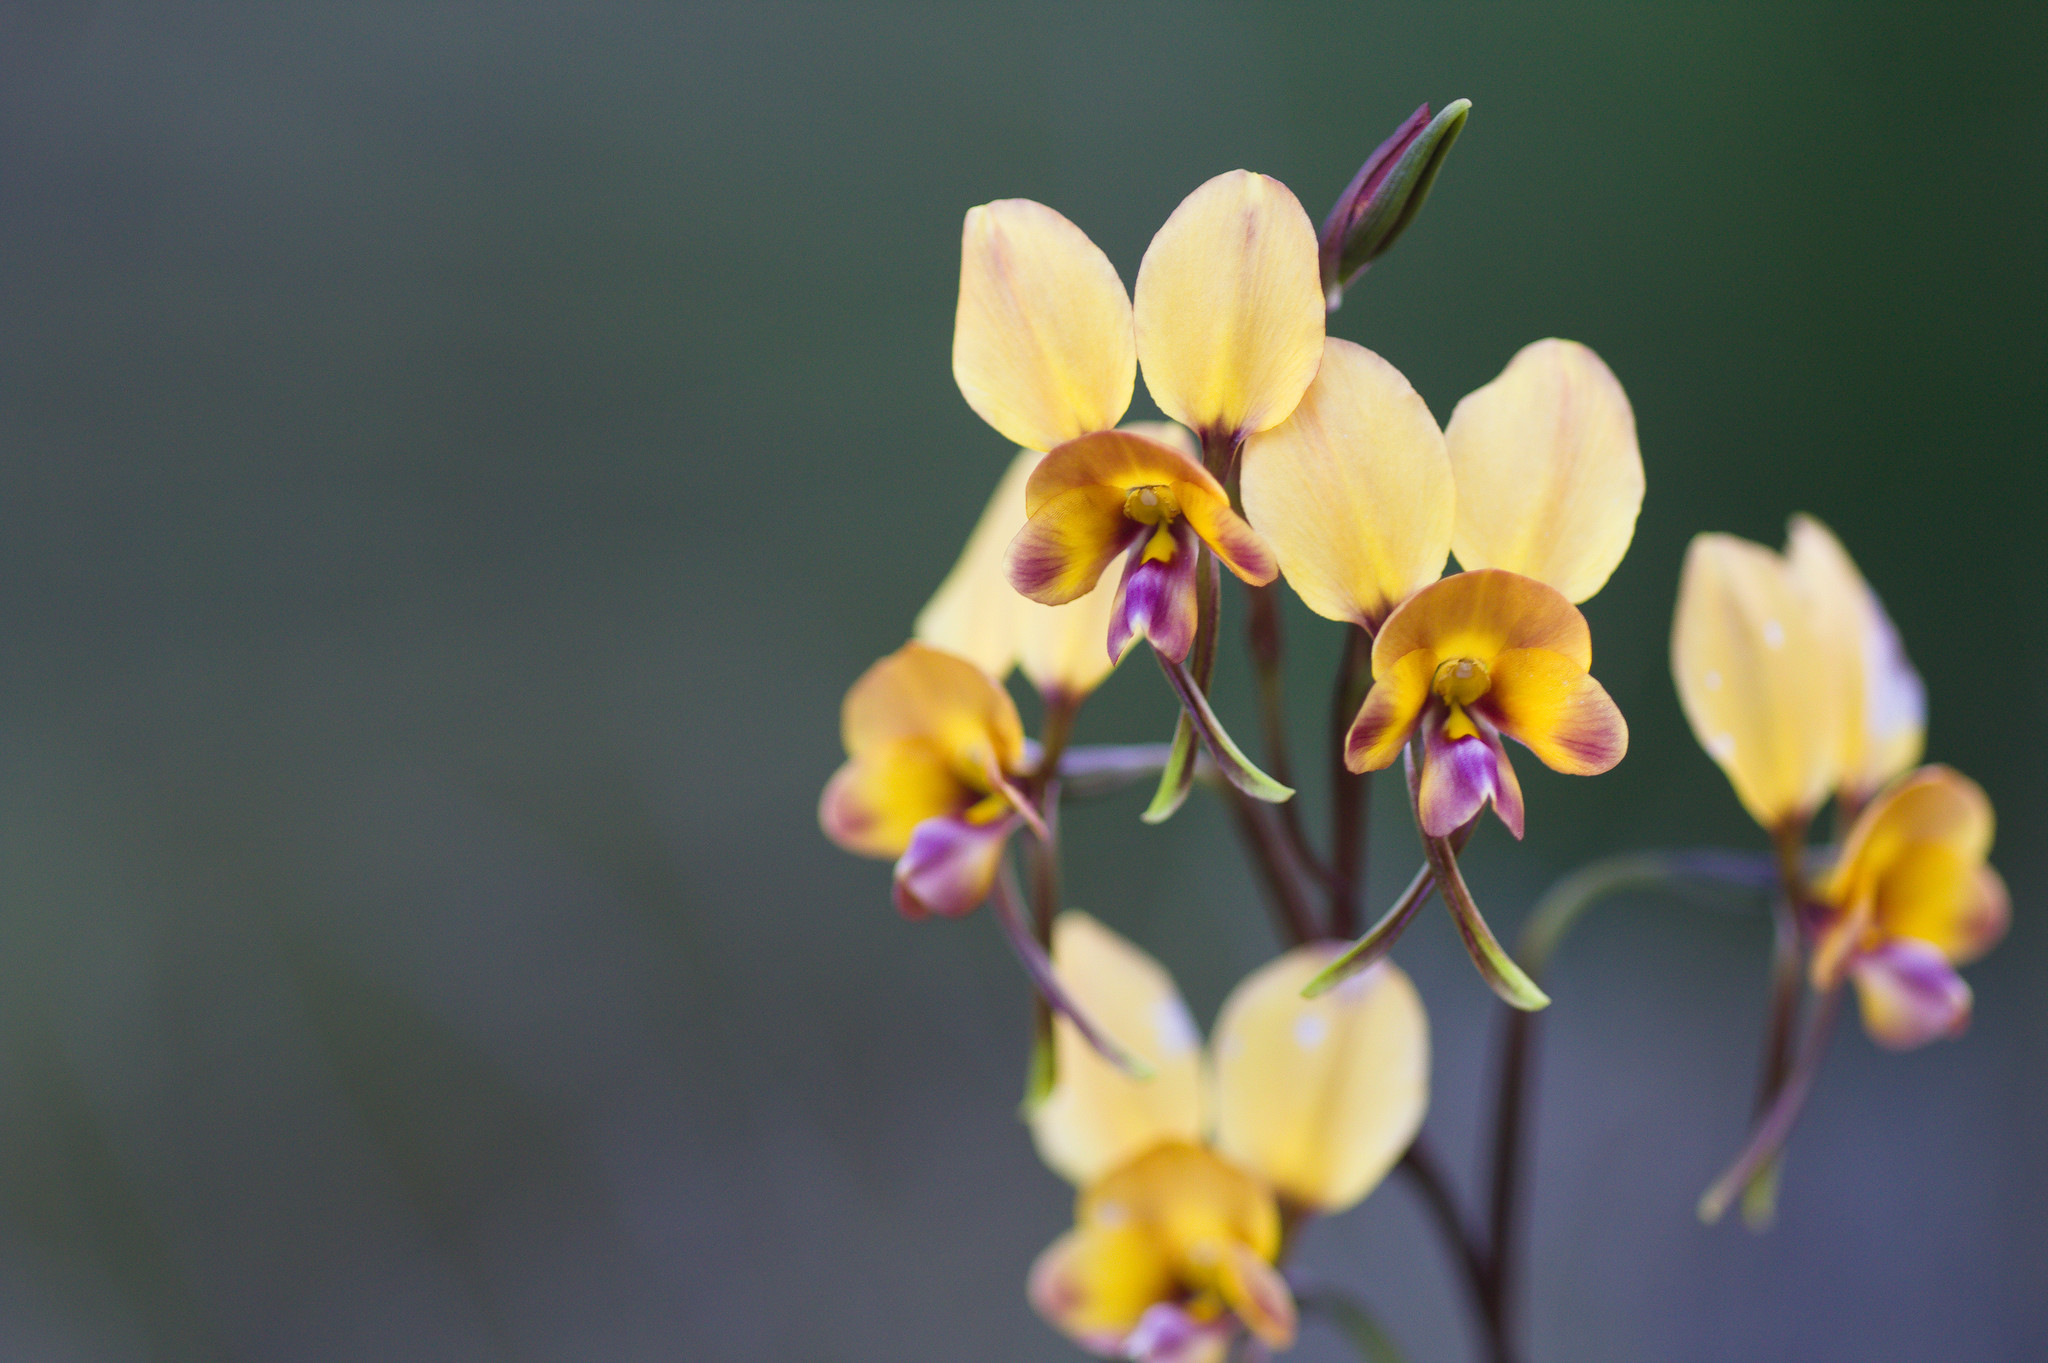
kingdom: Plantae
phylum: Tracheophyta
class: Liliopsida
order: Asparagales
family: Orchidaceae
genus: Diuris
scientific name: Diuris magnifica
